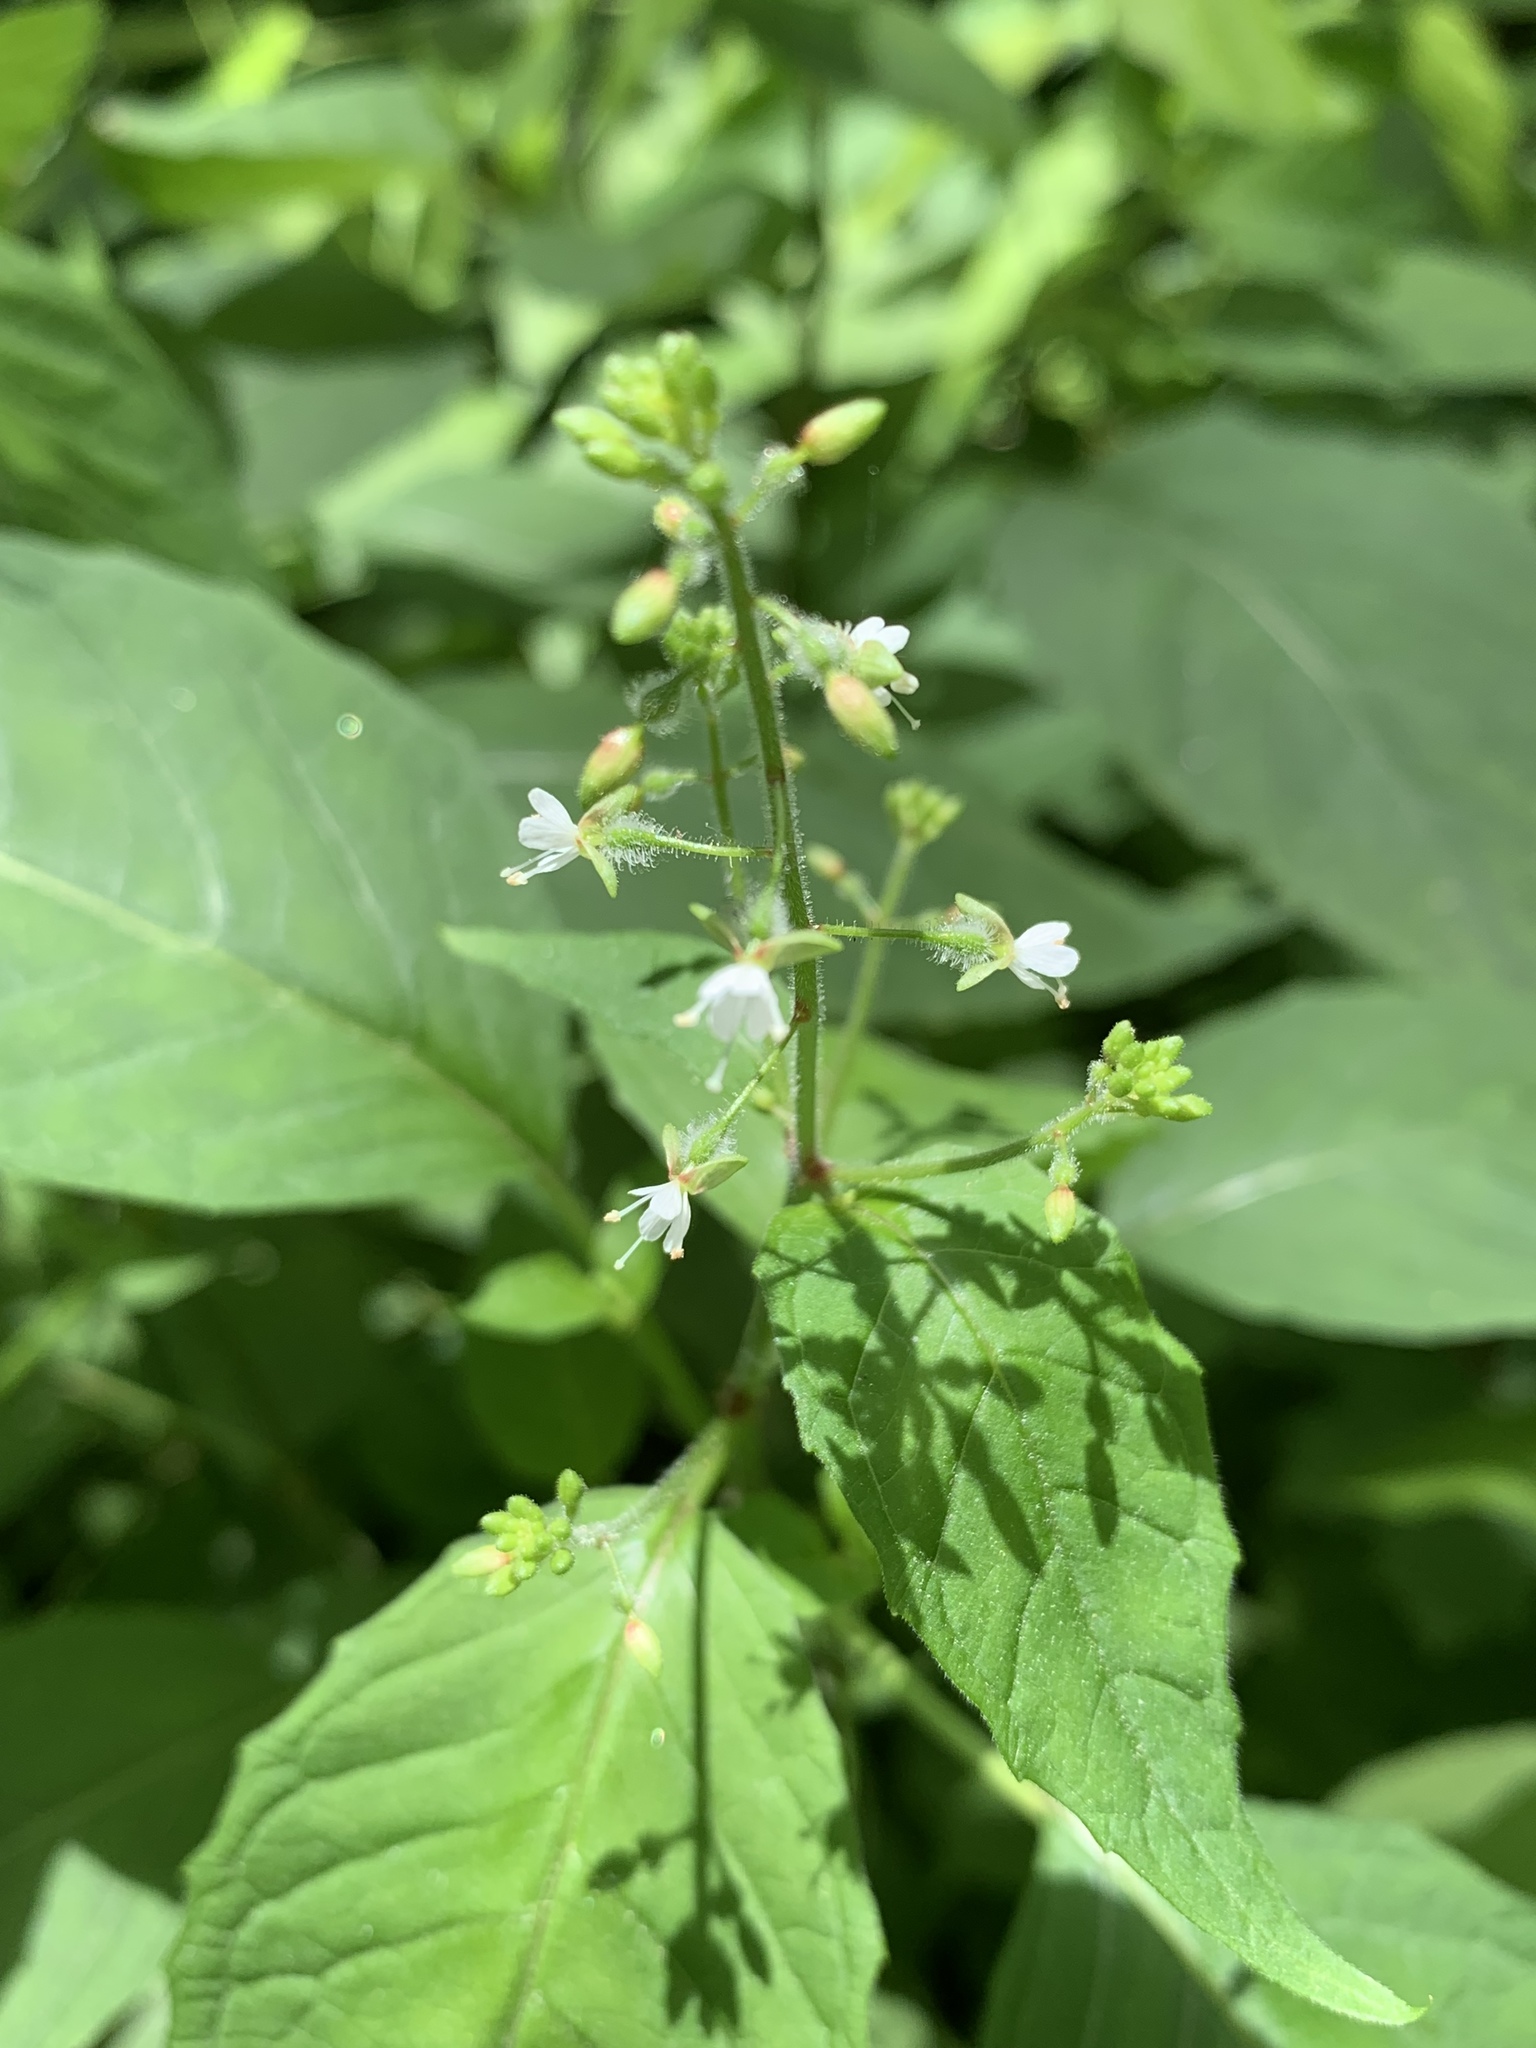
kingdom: Plantae
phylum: Tracheophyta
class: Magnoliopsida
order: Myrtales
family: Onagraceae
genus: Circaea
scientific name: Circaea canadensis
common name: Broad-leaved enchanter's nightshade
